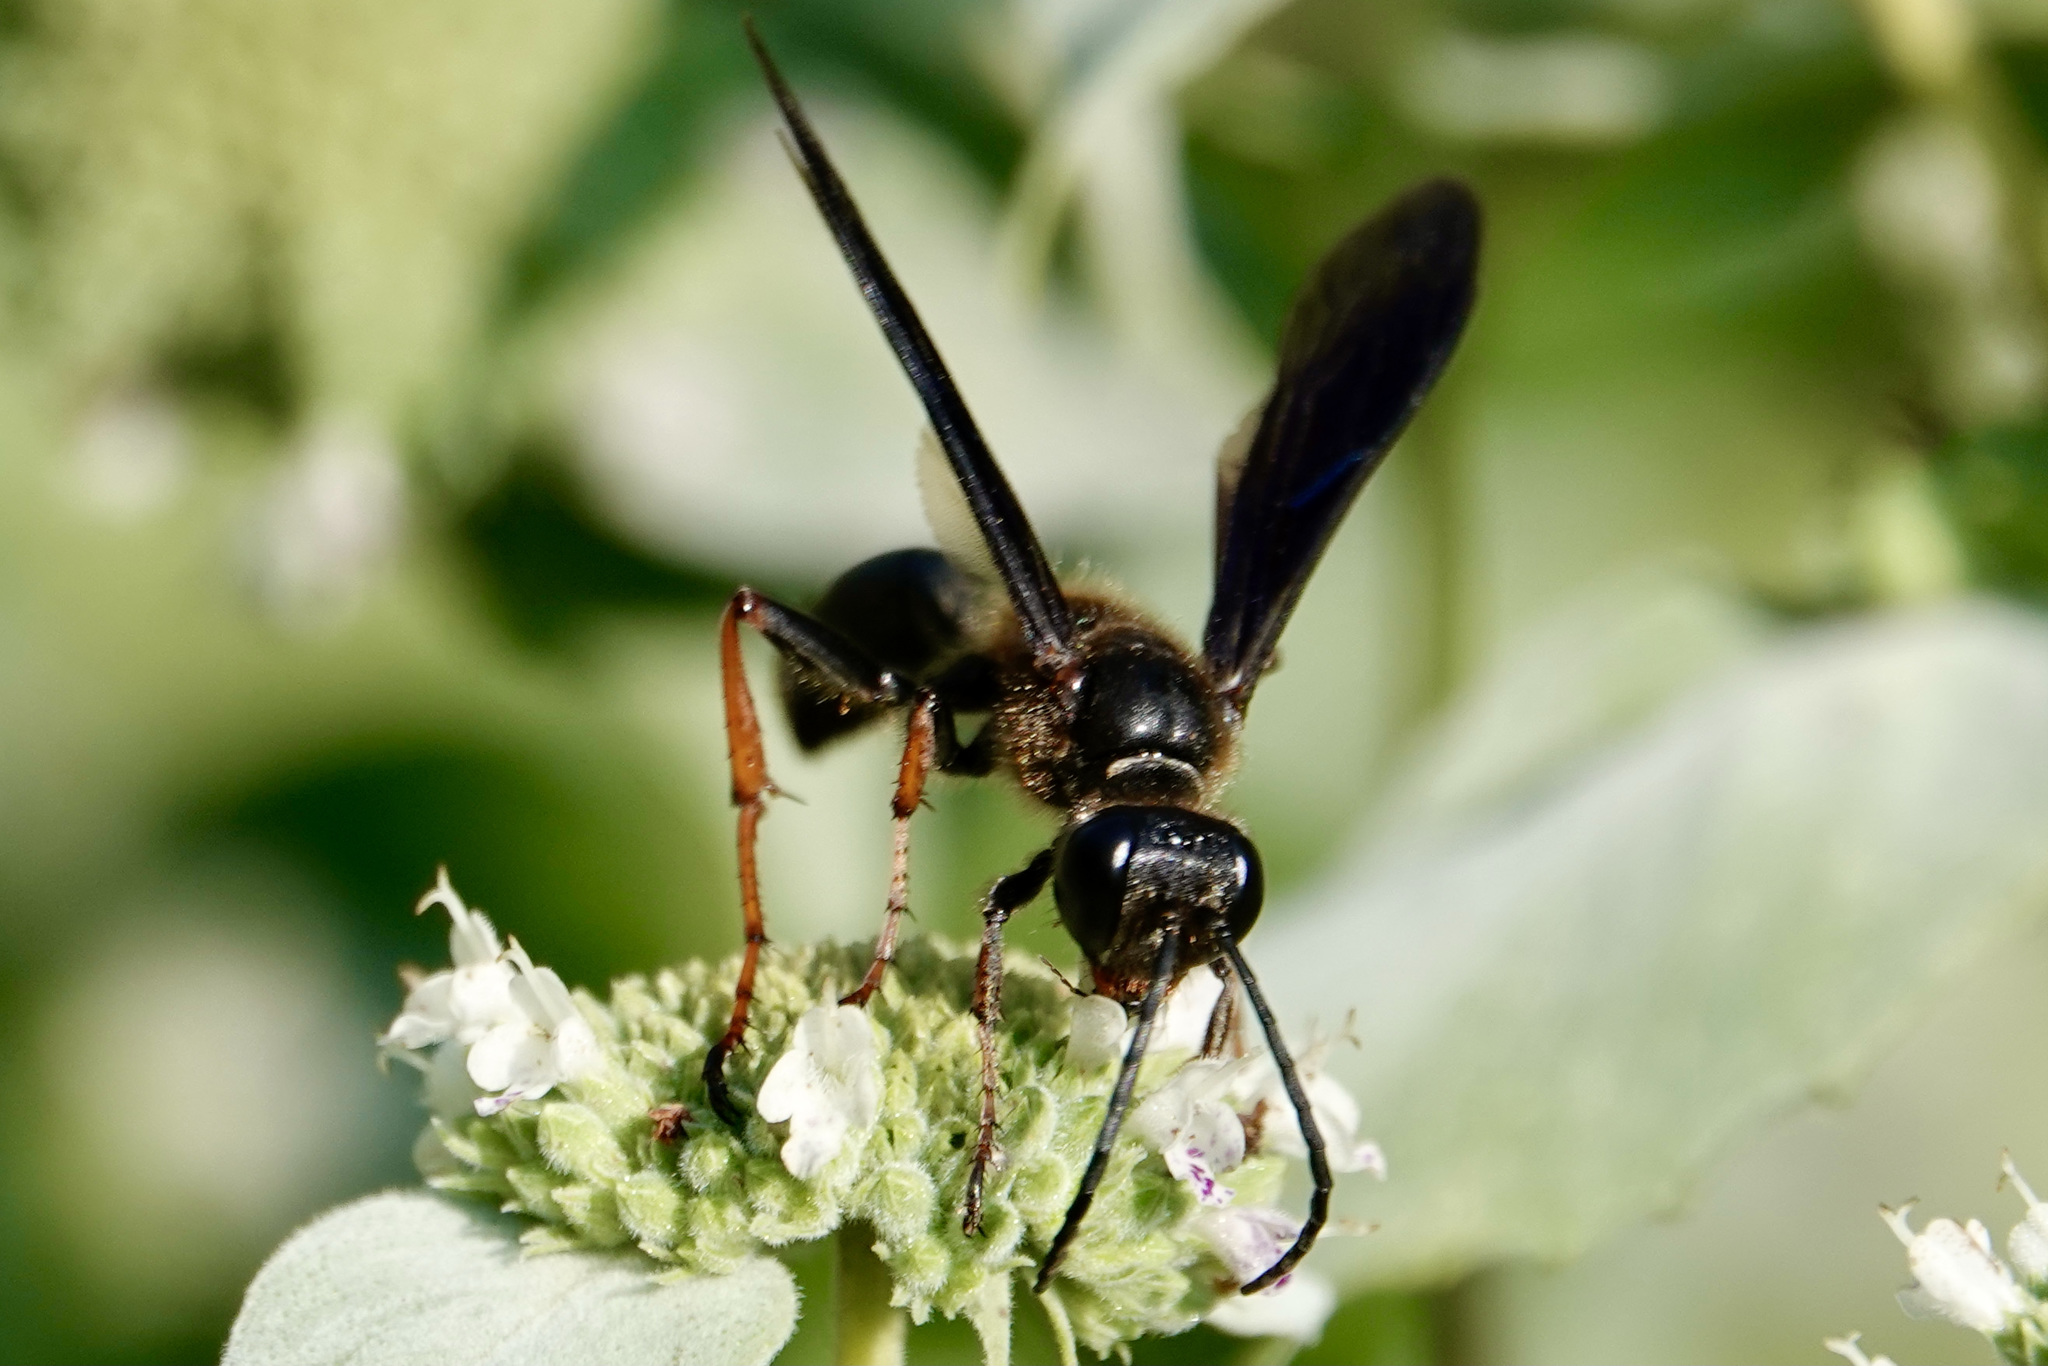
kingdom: Animalia
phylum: Arthropoda
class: Insecta
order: Hymenoptera
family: Sphecidae
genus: Isodontia
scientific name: Isodontia auripes
